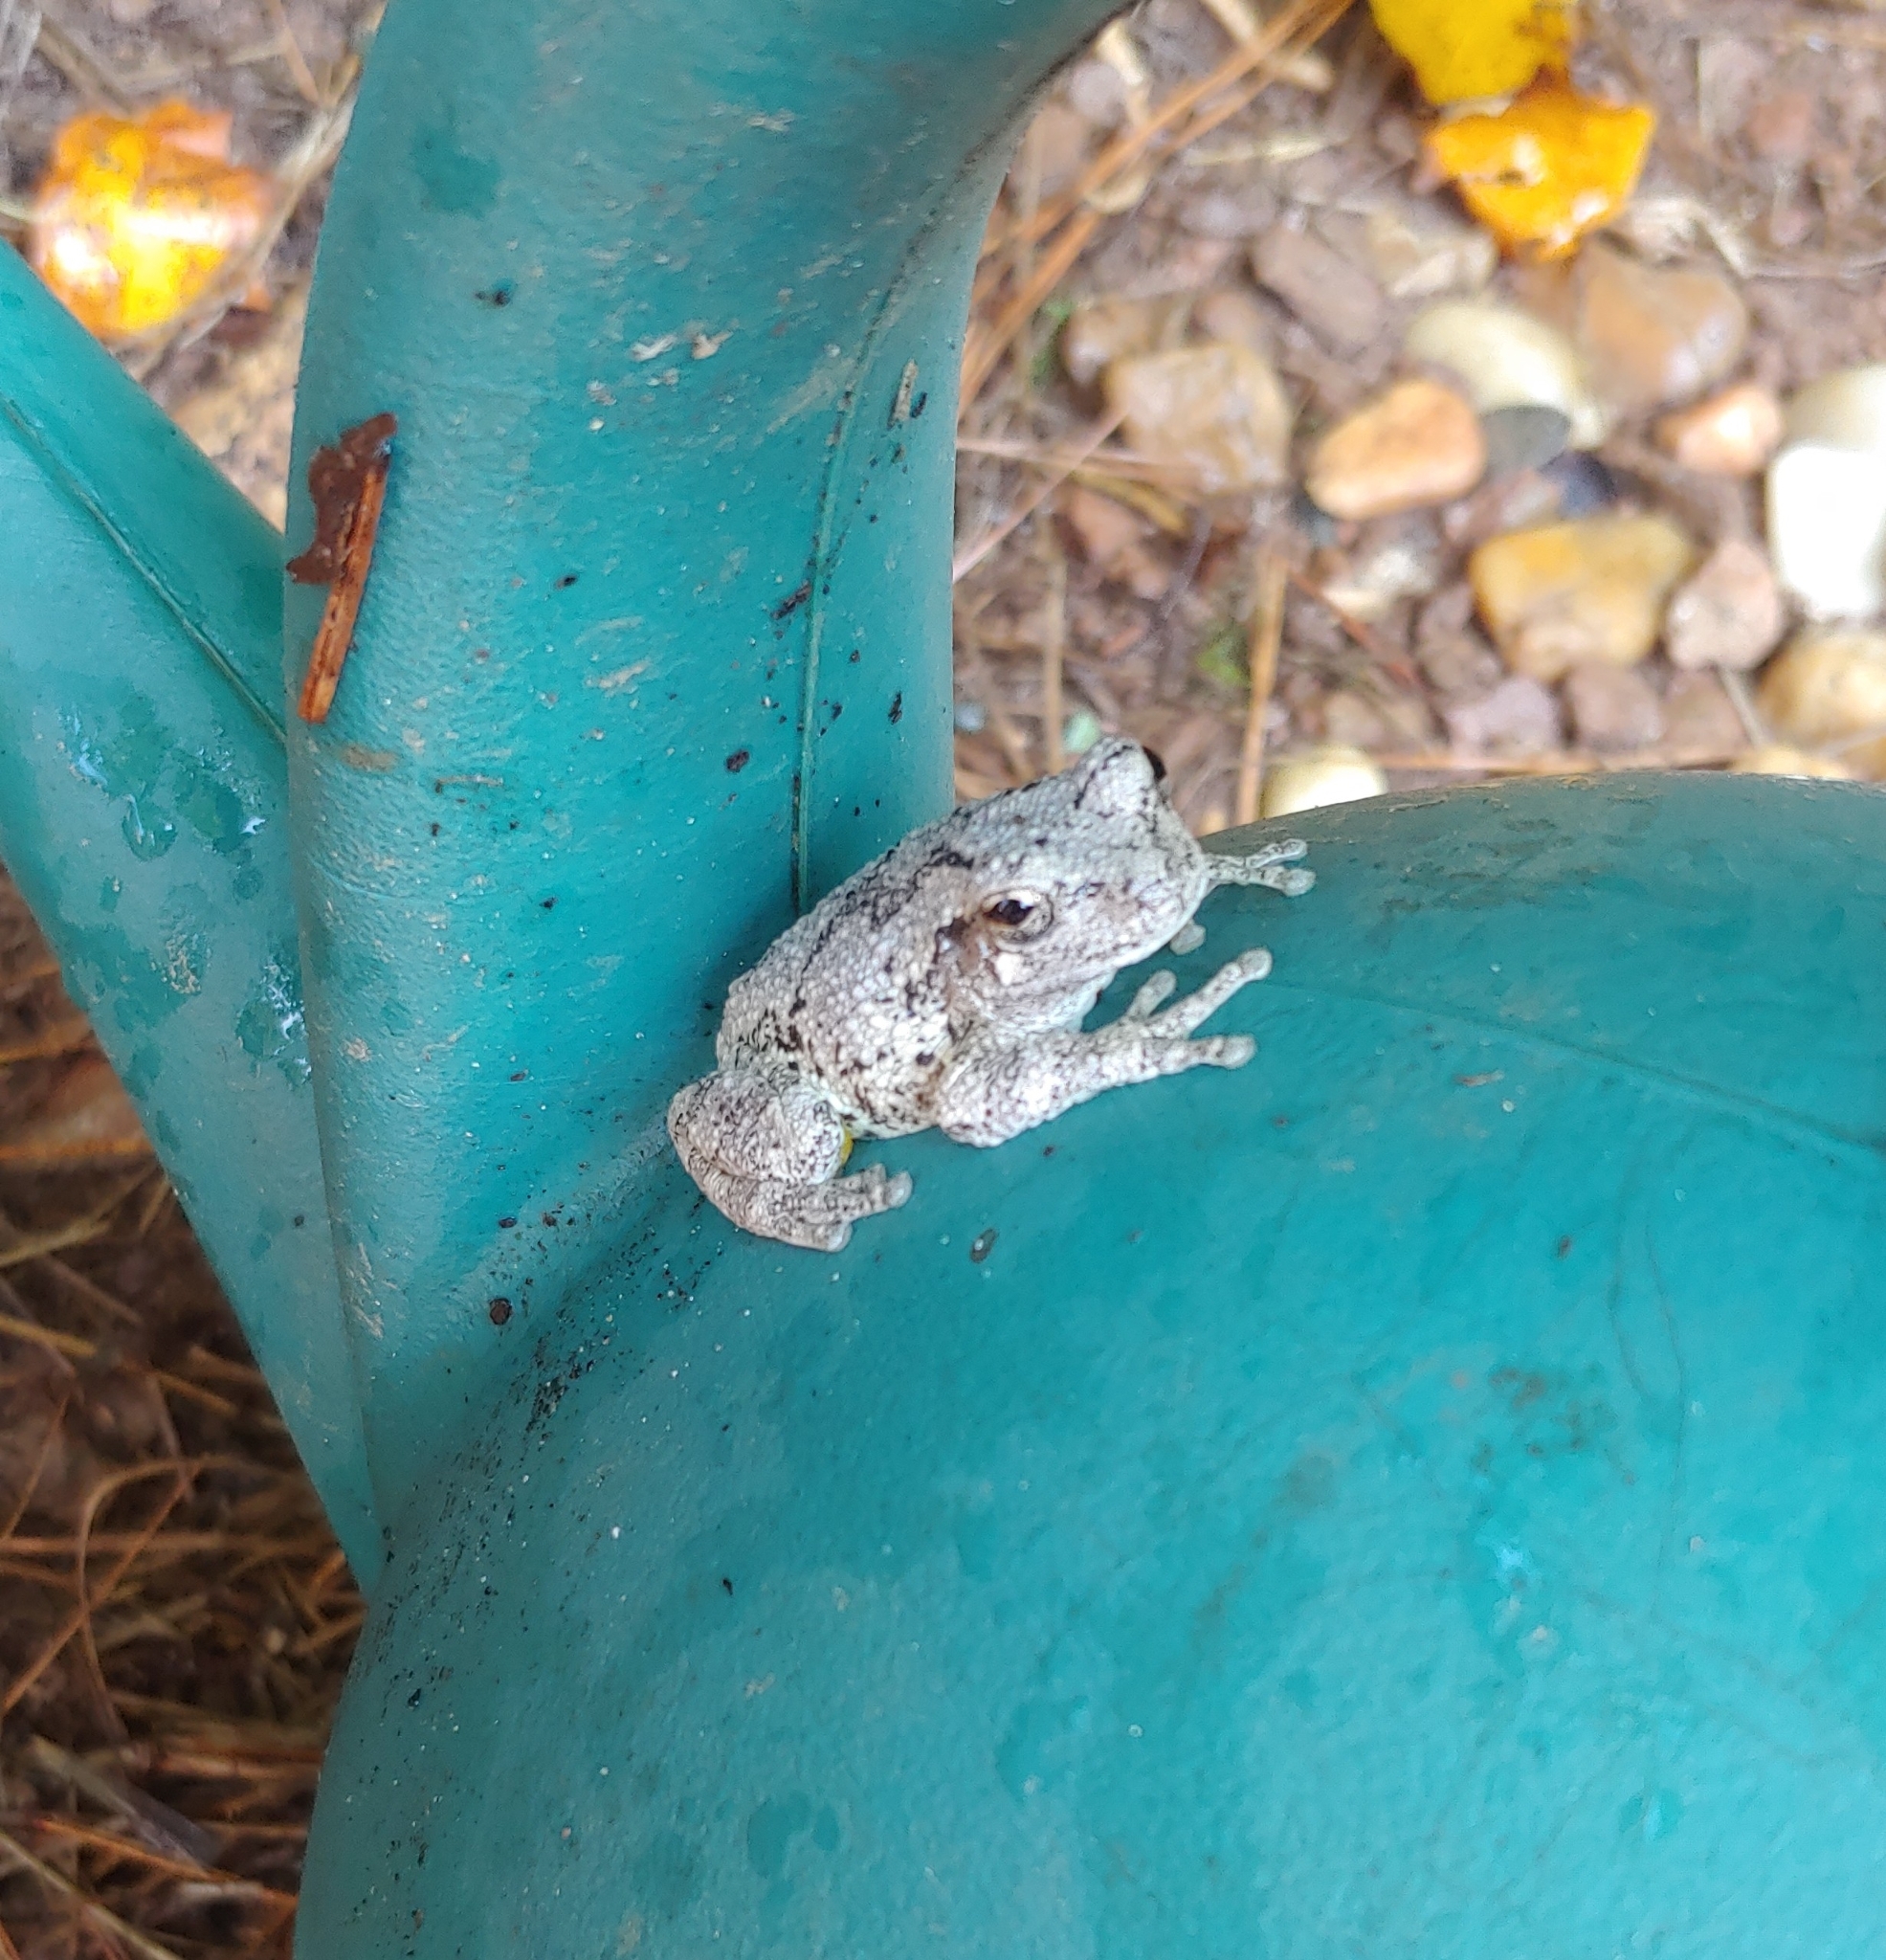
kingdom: Animalia
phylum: Chordata
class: Amphibia
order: Anura
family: Hylidae
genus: Dryophytes
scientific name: Dryophytes chrysoscelis
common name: Cope's gray treefrog
